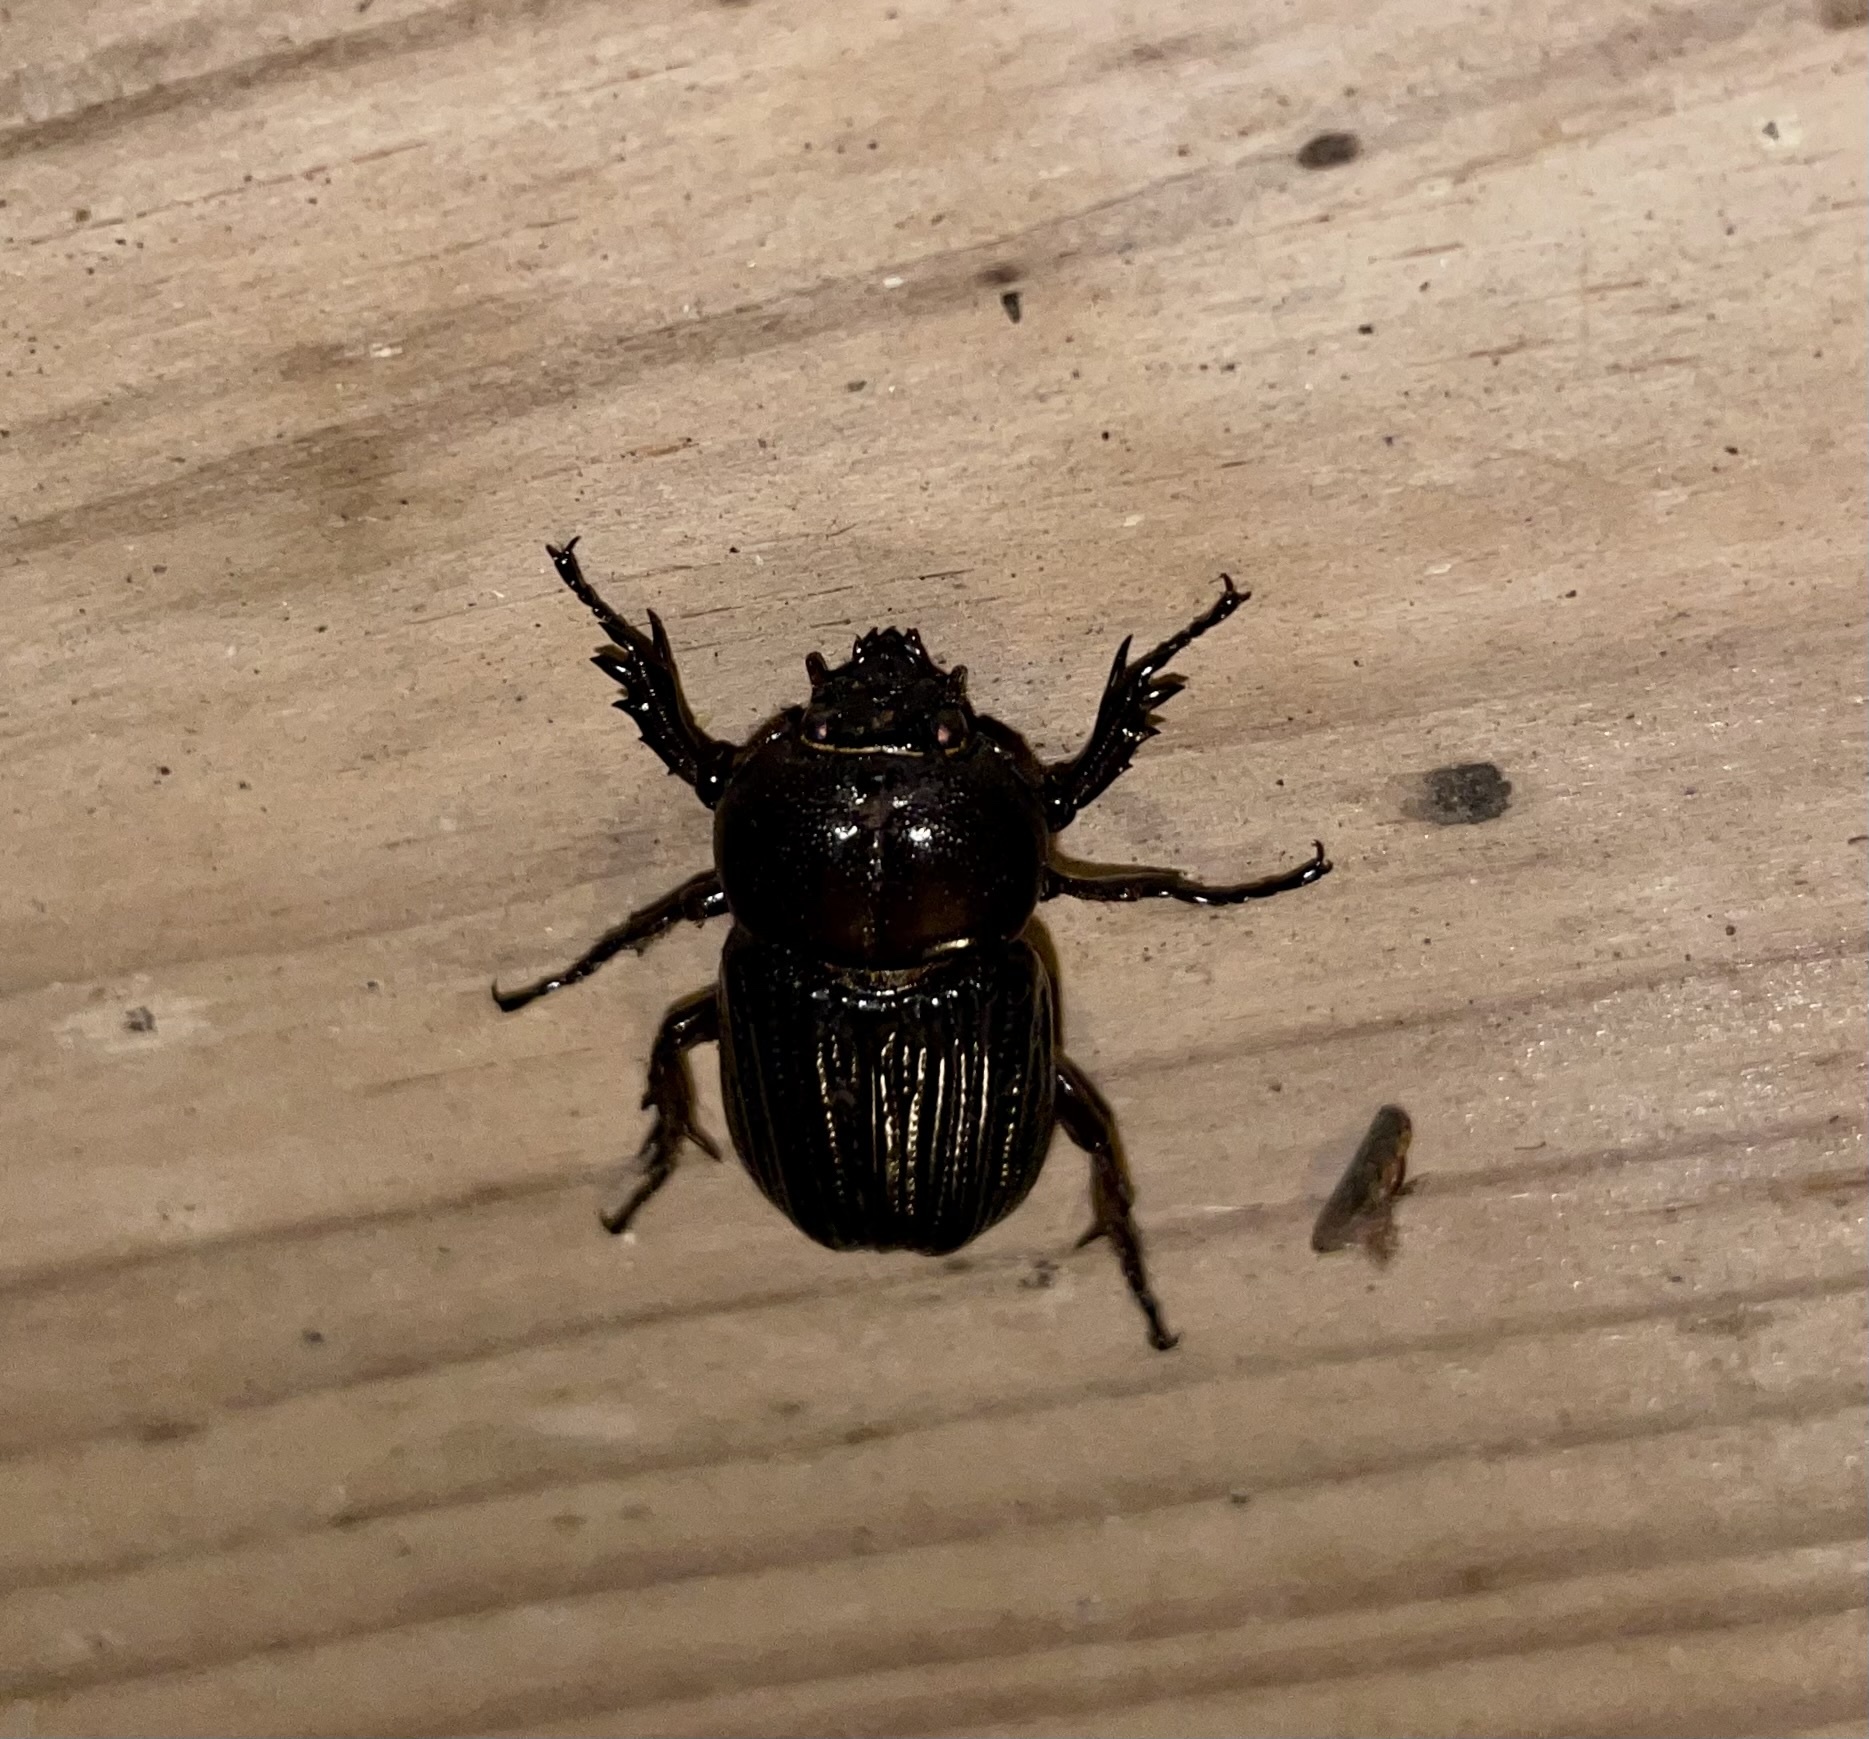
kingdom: Animalia
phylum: Arthropoda
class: Insecta
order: Coleoptera
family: Scarabaeidae
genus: Phileurus
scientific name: Phileurus valgus
